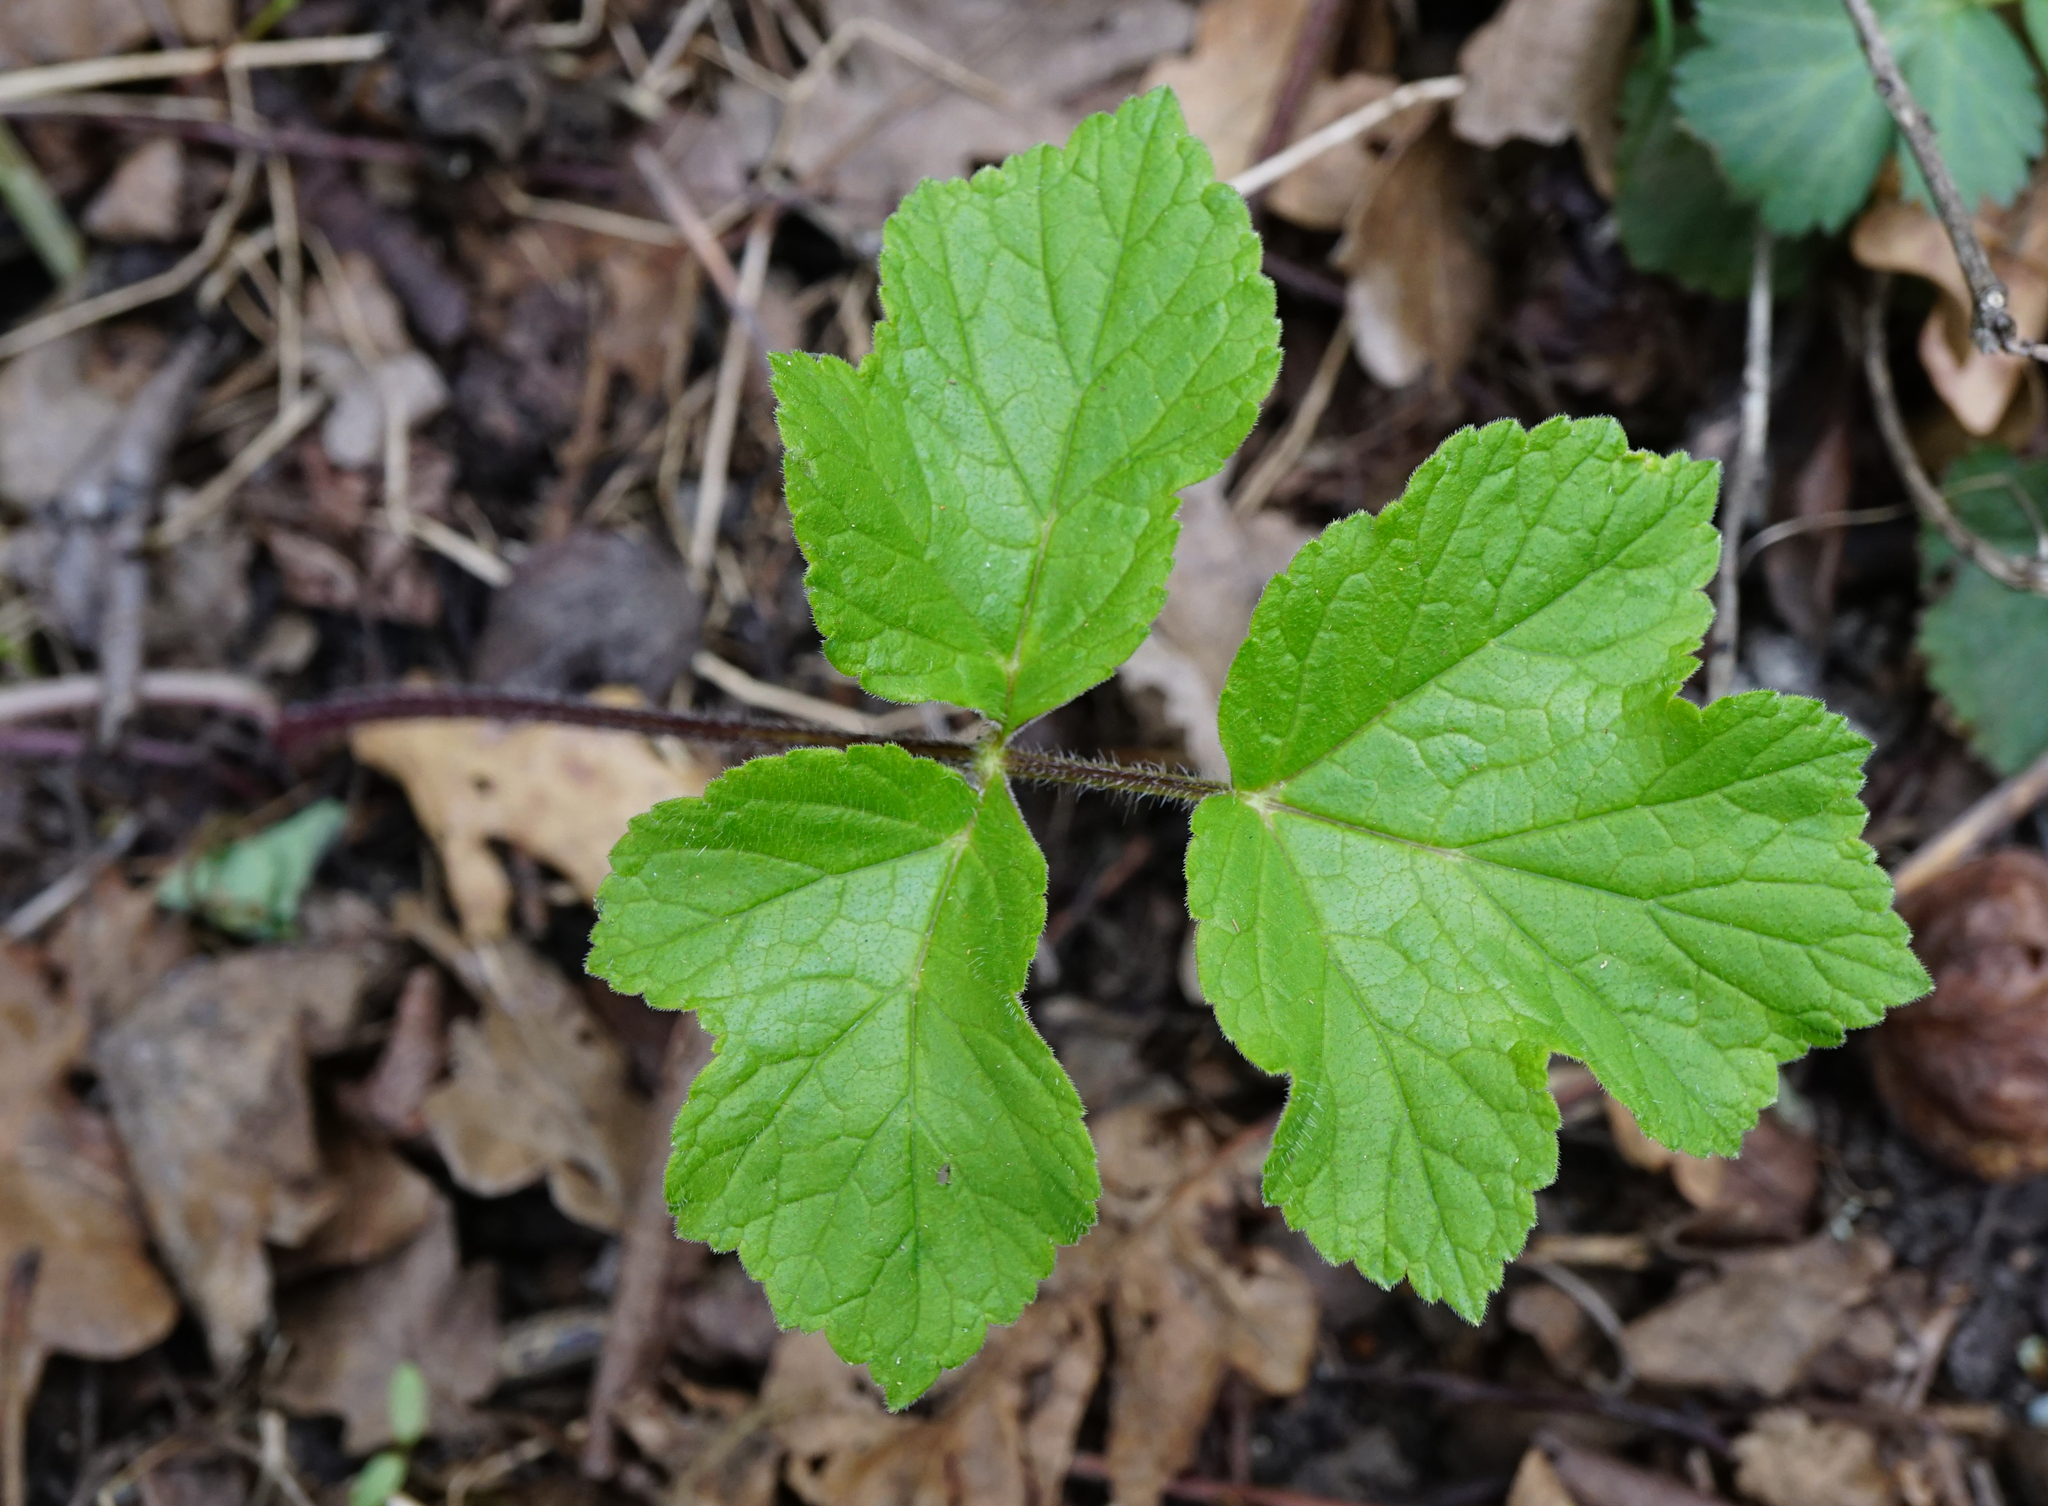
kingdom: Plantae
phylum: Tracheophyta
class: Magnoliopsida
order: Apiales
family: Apiaceae
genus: Heracleum
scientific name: Heracleum sphondylium
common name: Hogweed
